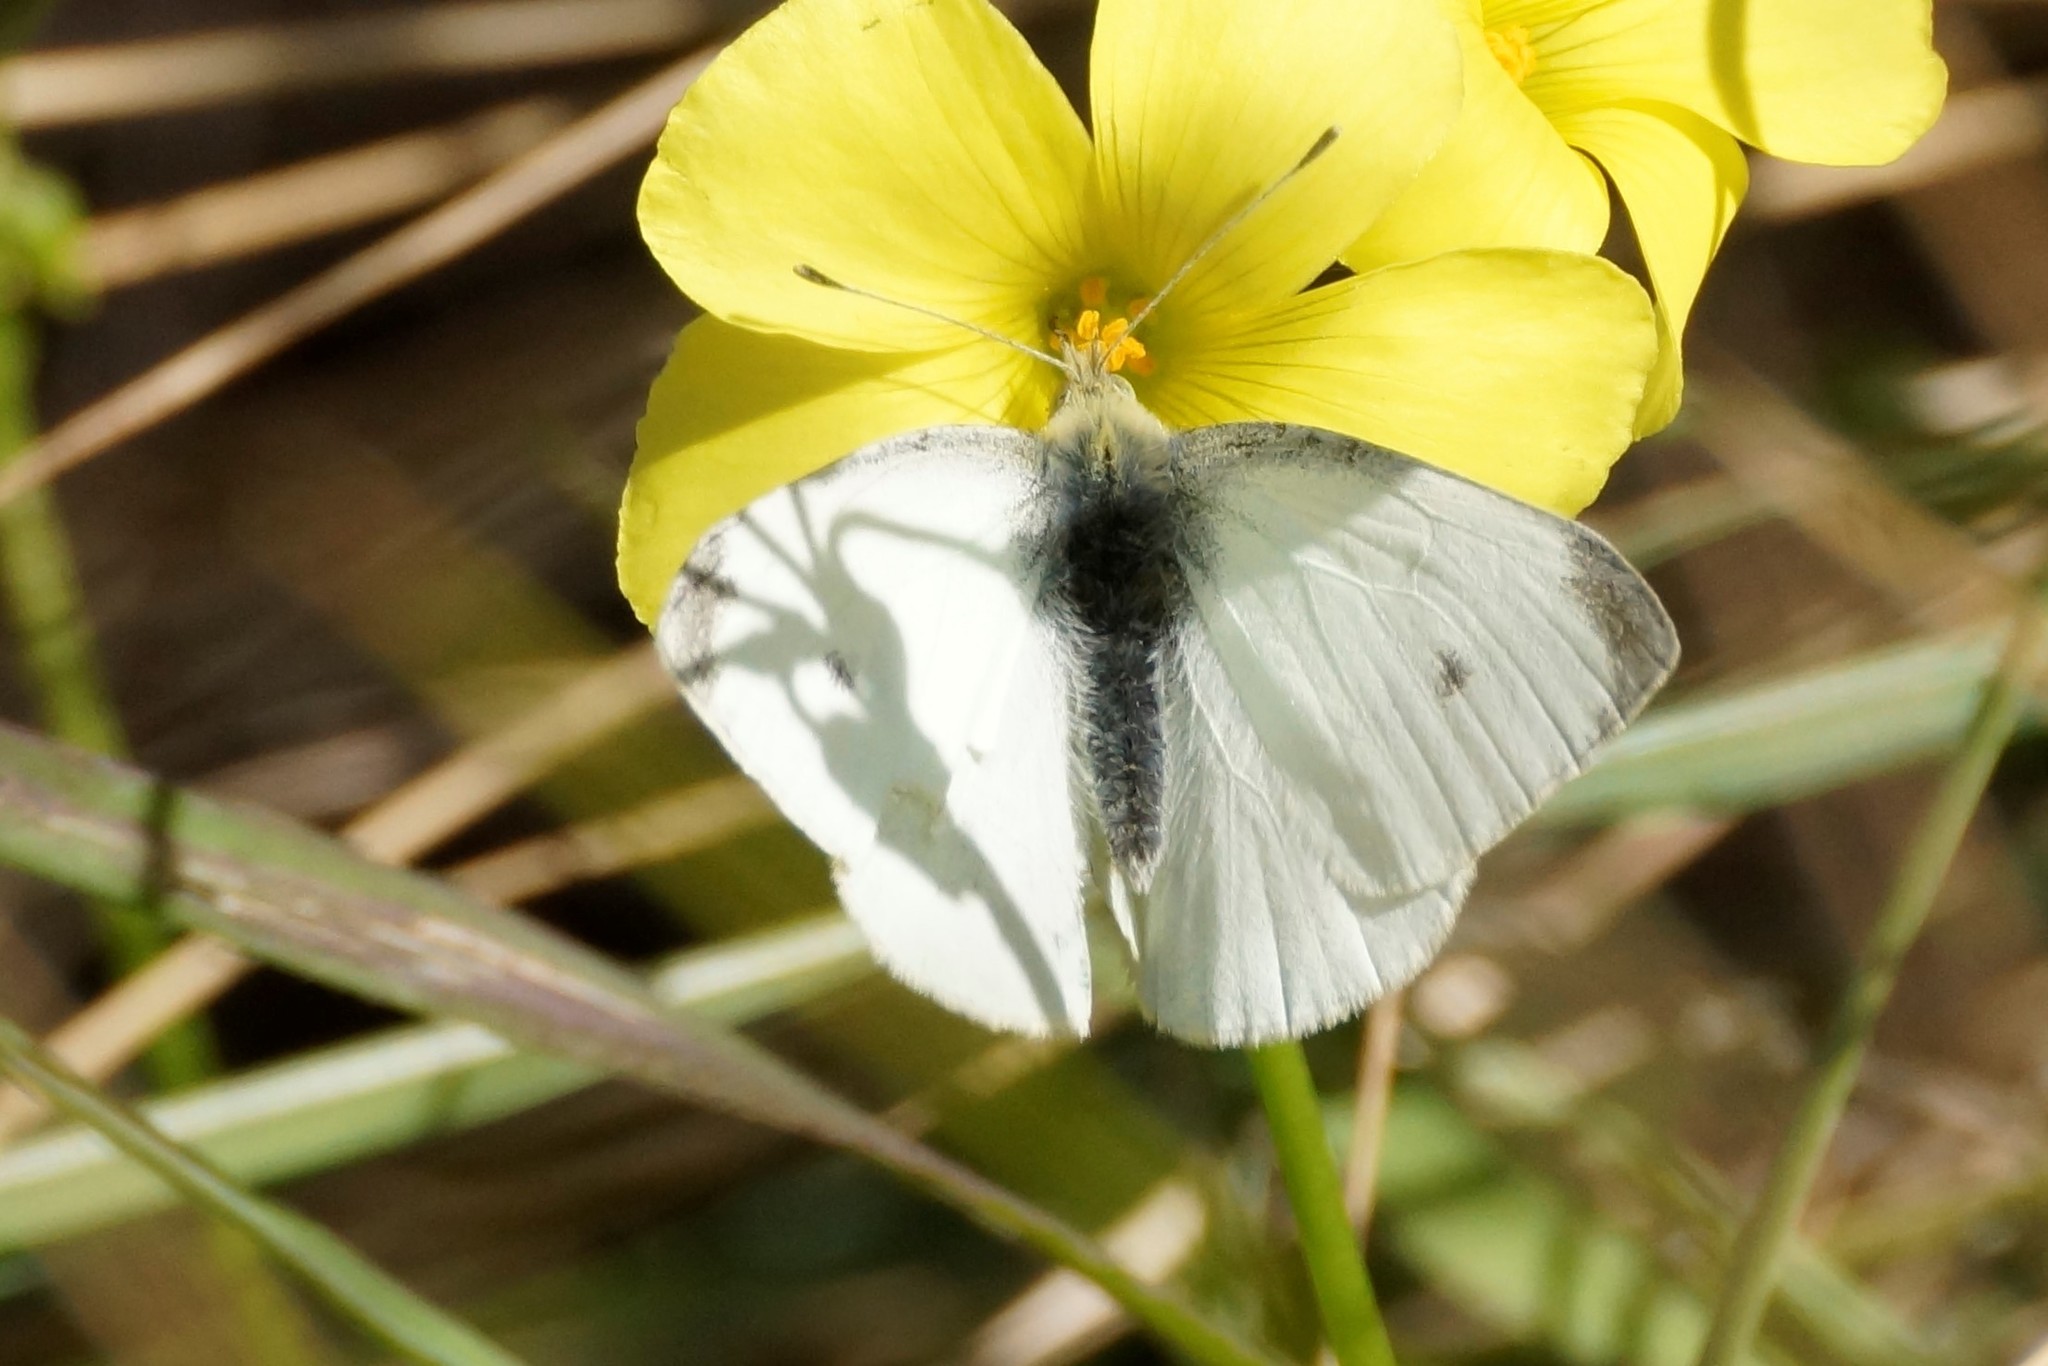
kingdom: Animalia
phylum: Arthropoda
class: Insecta
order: Lepidoptera
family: Pieridae
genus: Pieris
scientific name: Pieris rapae
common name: Small white
